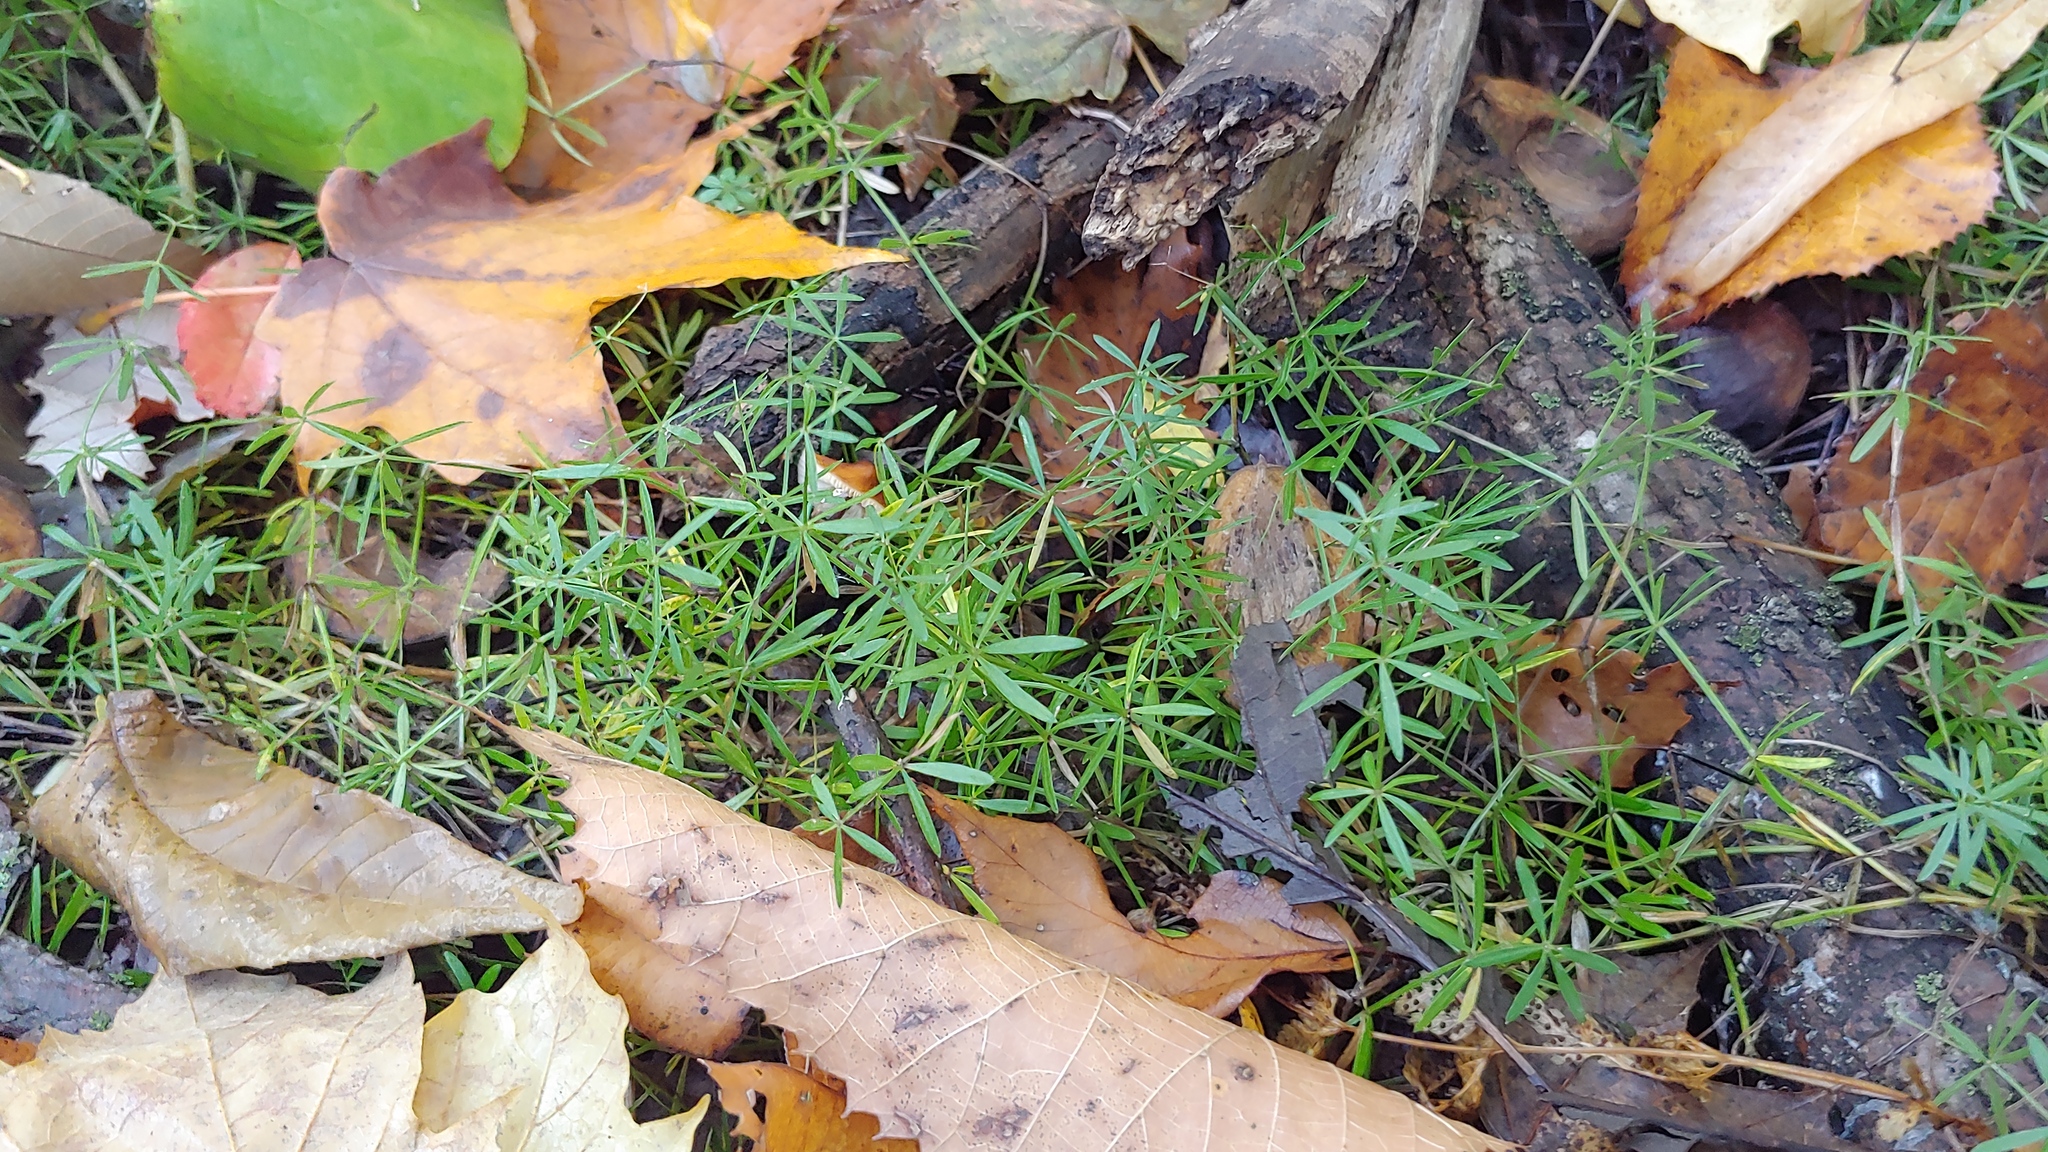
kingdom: Plantae
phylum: Tracheophyta
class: Magnoliopsida
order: Gentianales
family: Rubiaceae
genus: Galium
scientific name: Galium concinnum
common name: Shining bedstraw
